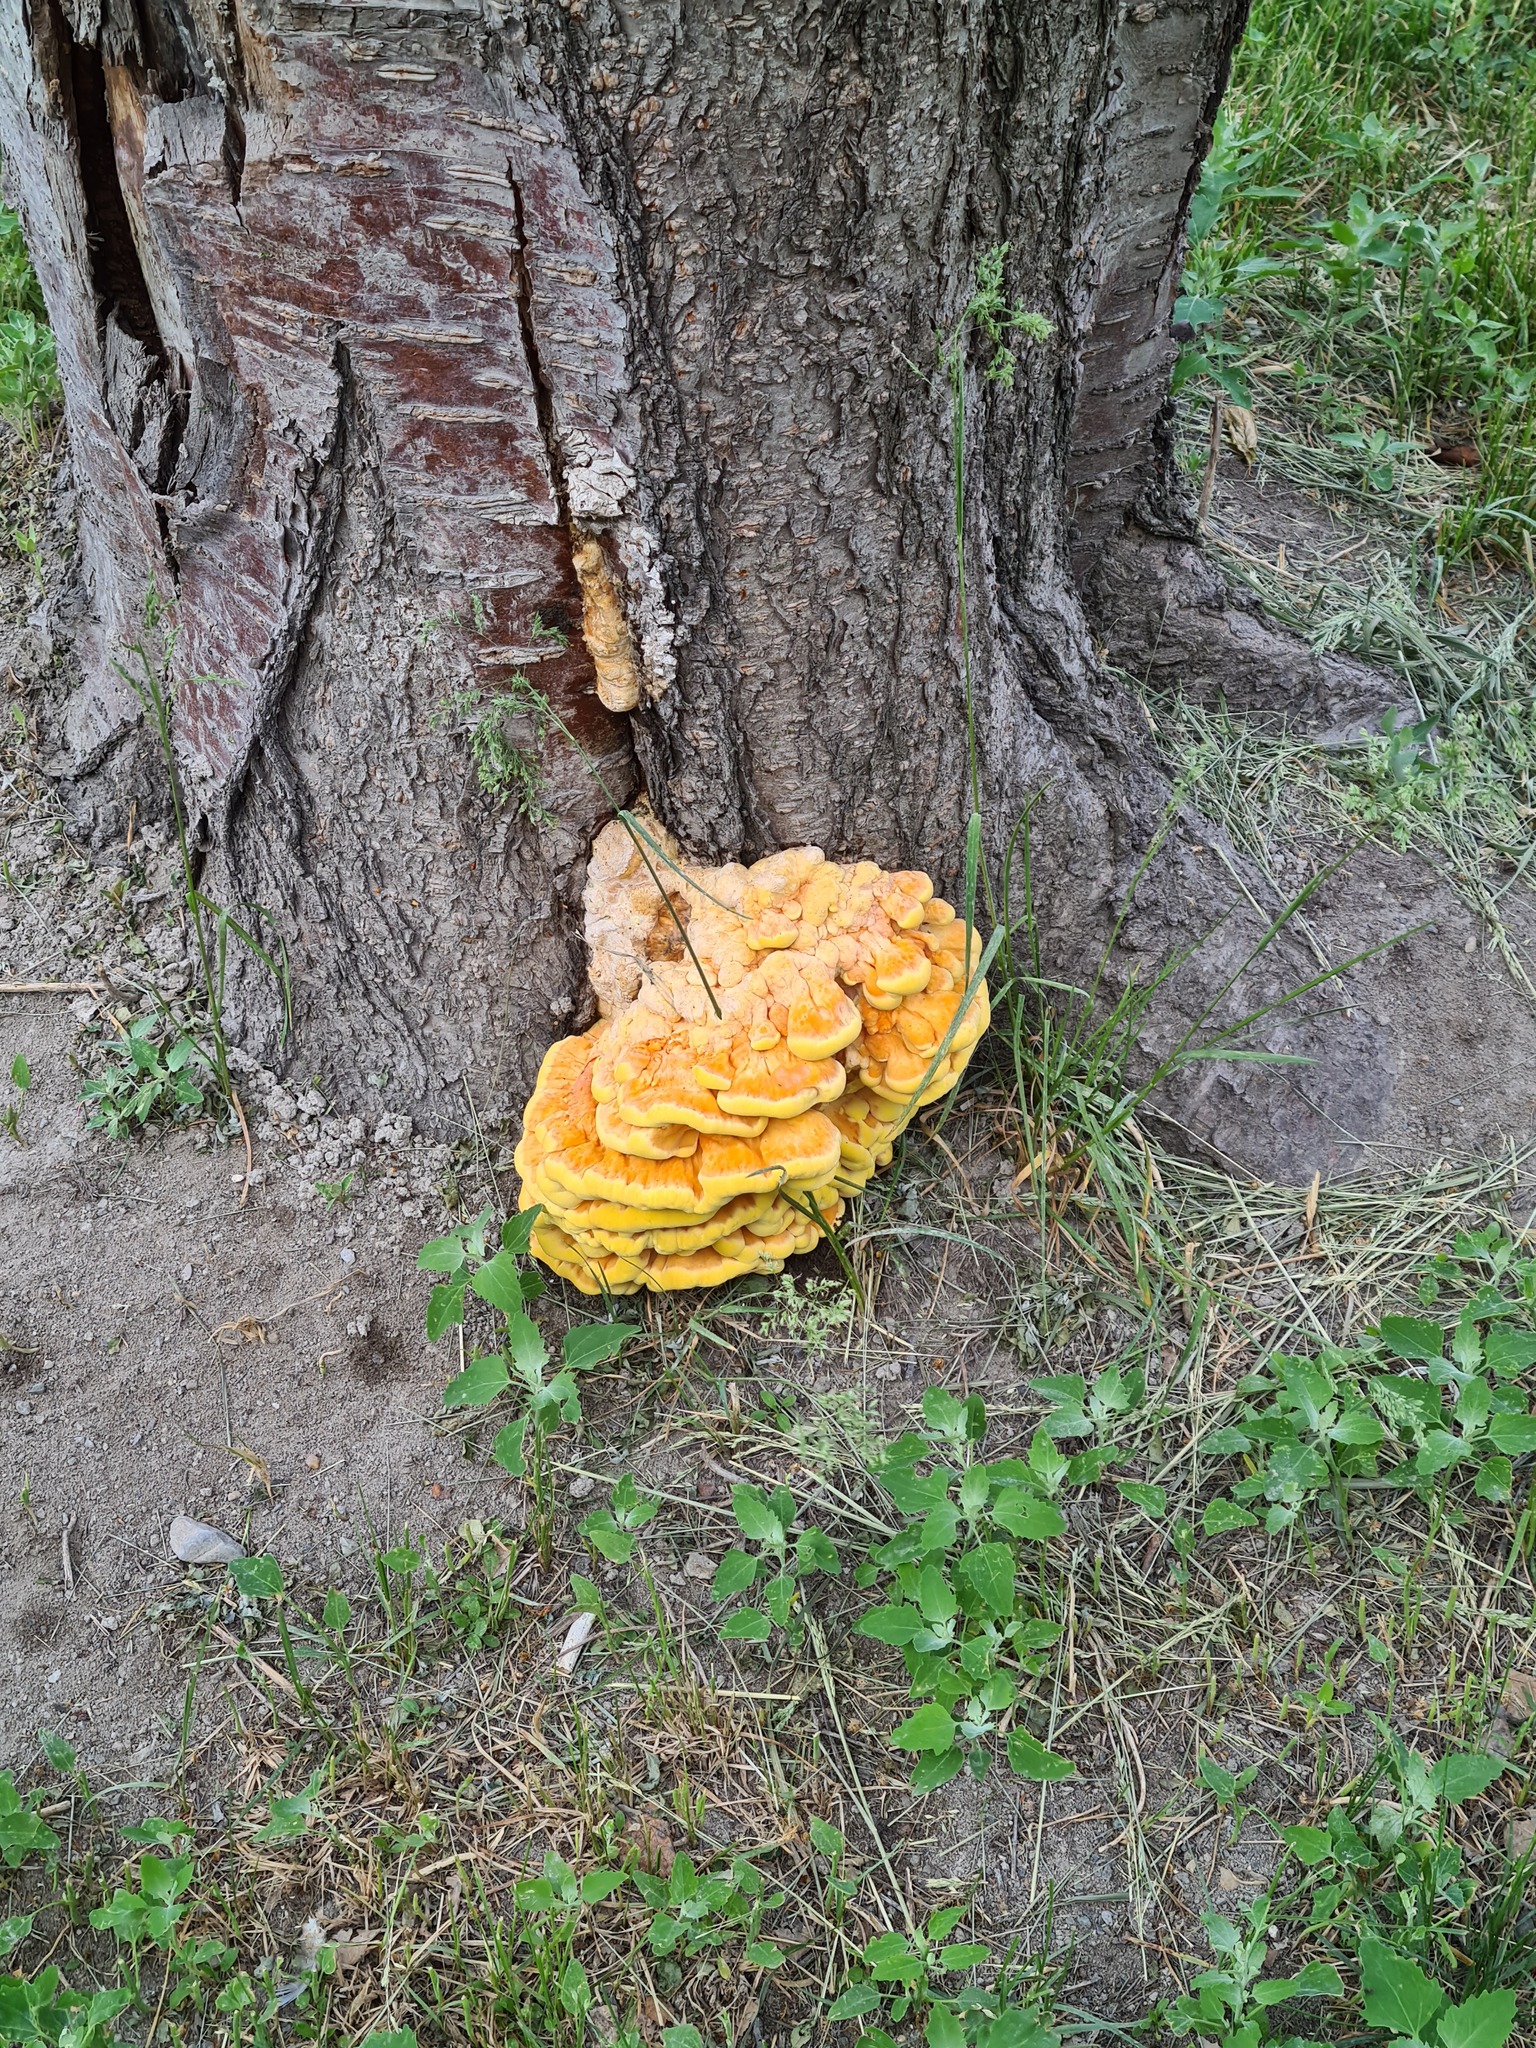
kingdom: Fungi
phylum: Basidiomycota
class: Agaricomycetes
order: Polyporales
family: Laetiporaceae
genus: Laetiporus
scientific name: Laetiporus sulphureus
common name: Chicken of the woods
